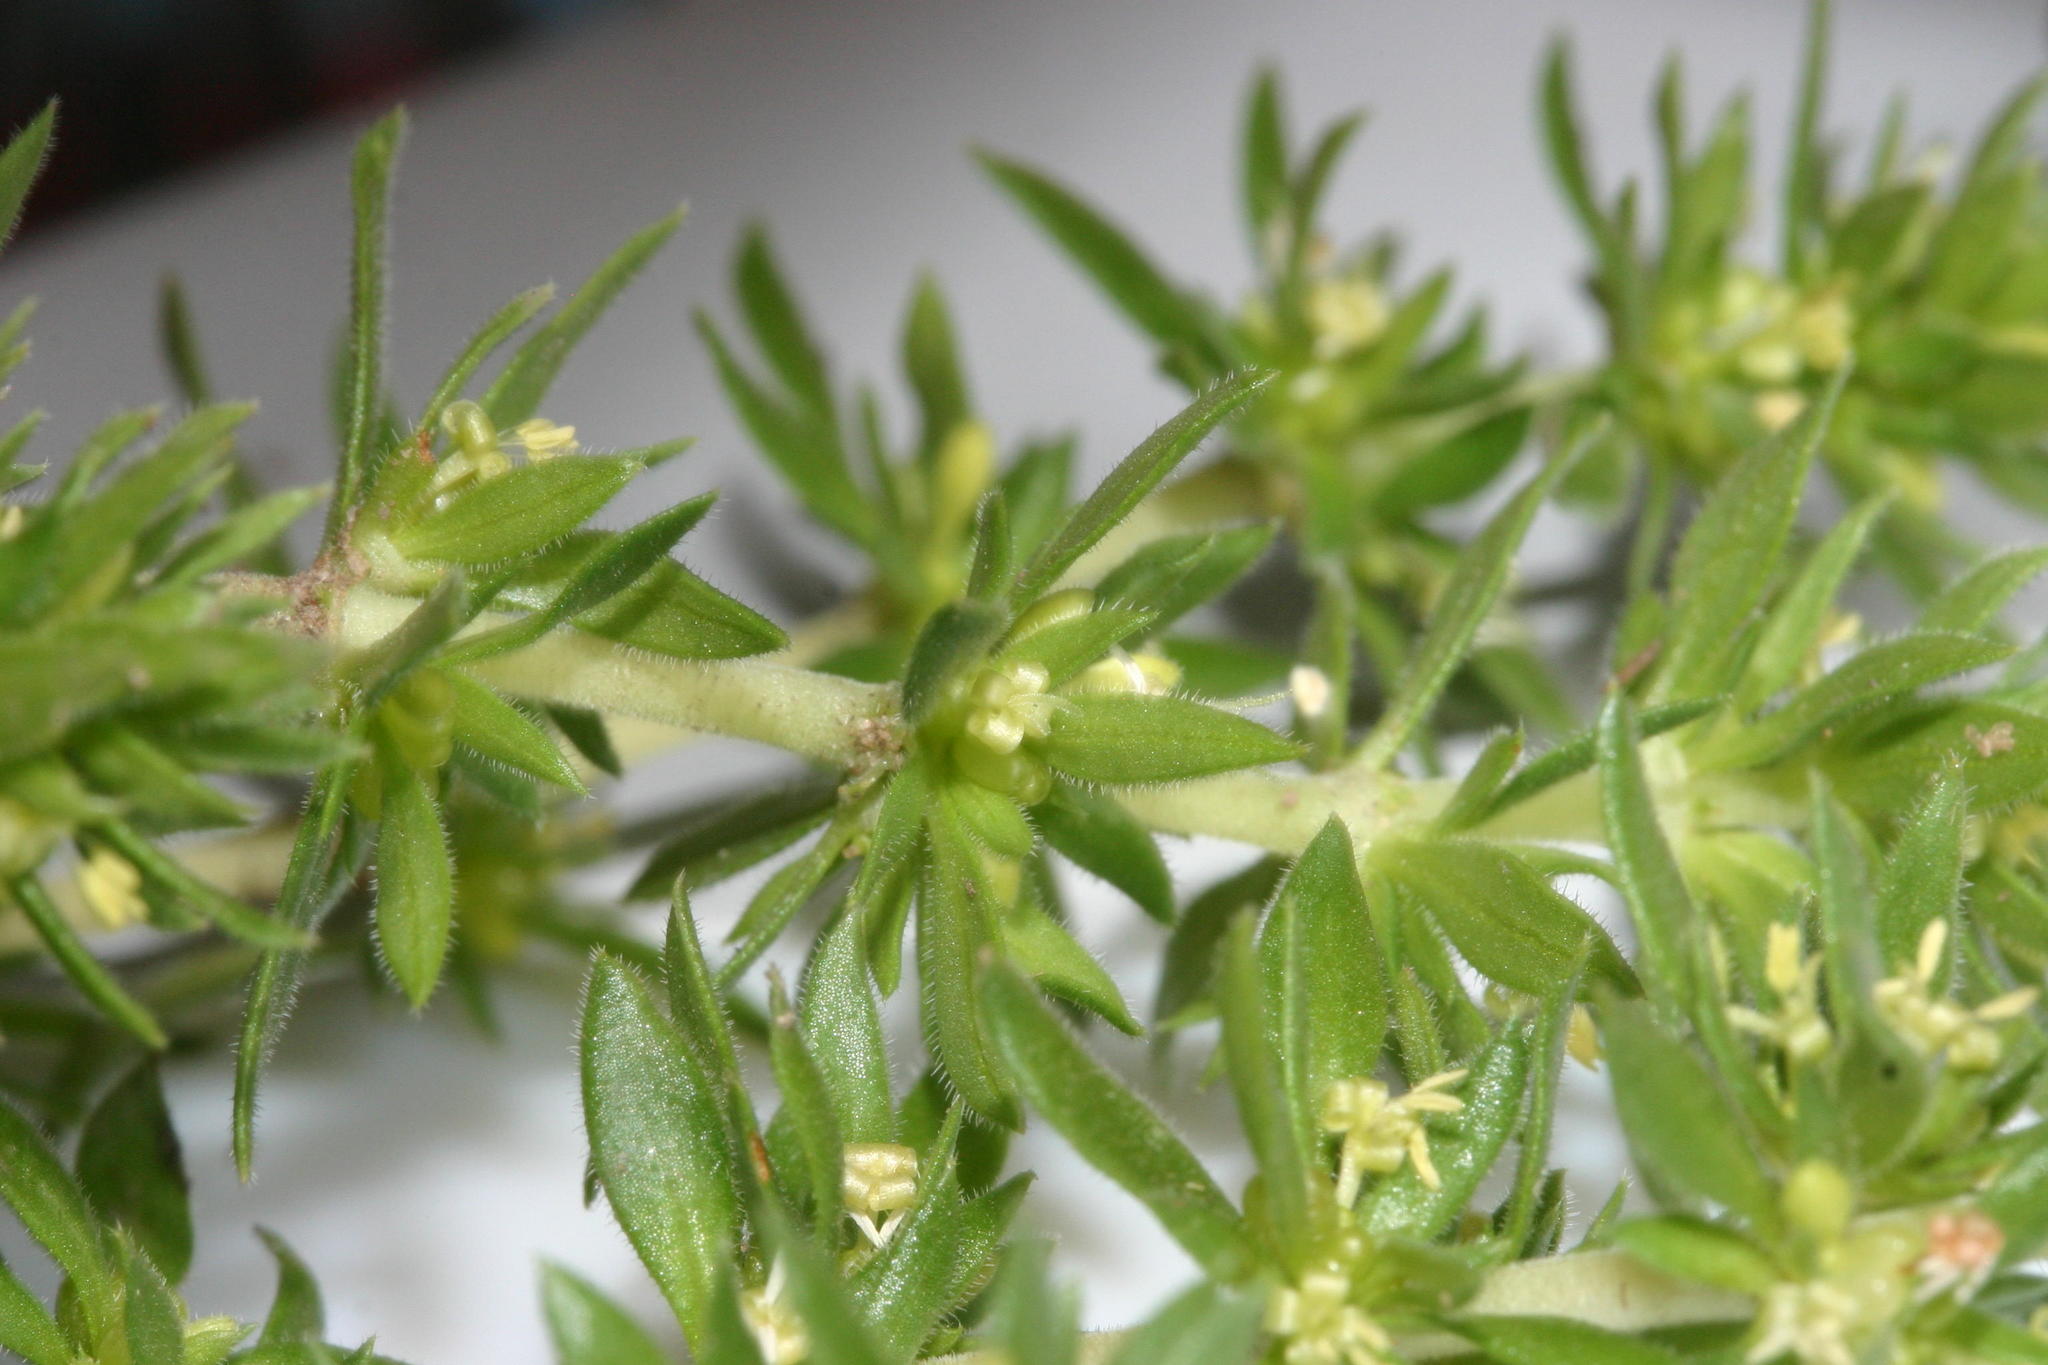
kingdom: Plantae
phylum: Tracheophyta
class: Magnoliopsida
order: Gentianales
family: Rubiaceae
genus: Anthospermum
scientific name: Anthospermum galioides
